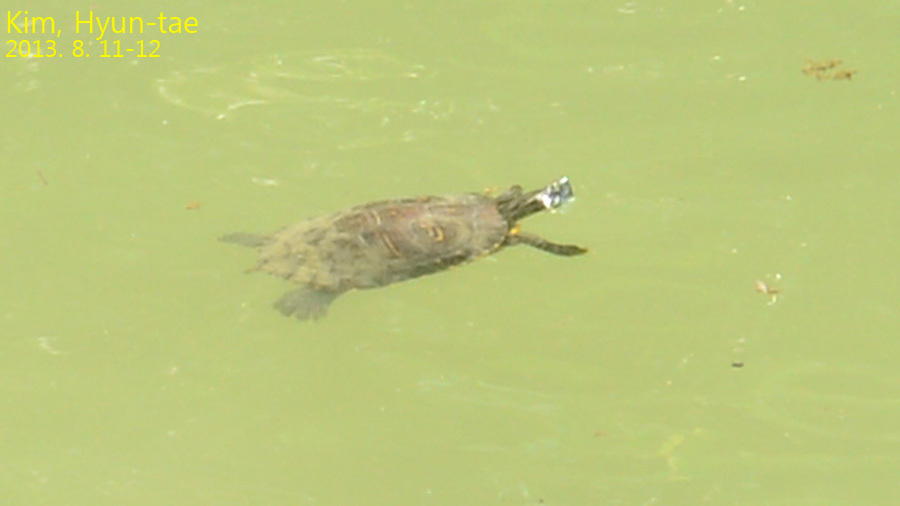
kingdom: Animalia
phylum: Chordata
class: Testudines
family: Emydidae
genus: Trachemys
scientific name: Trachemys scripta
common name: Slider
